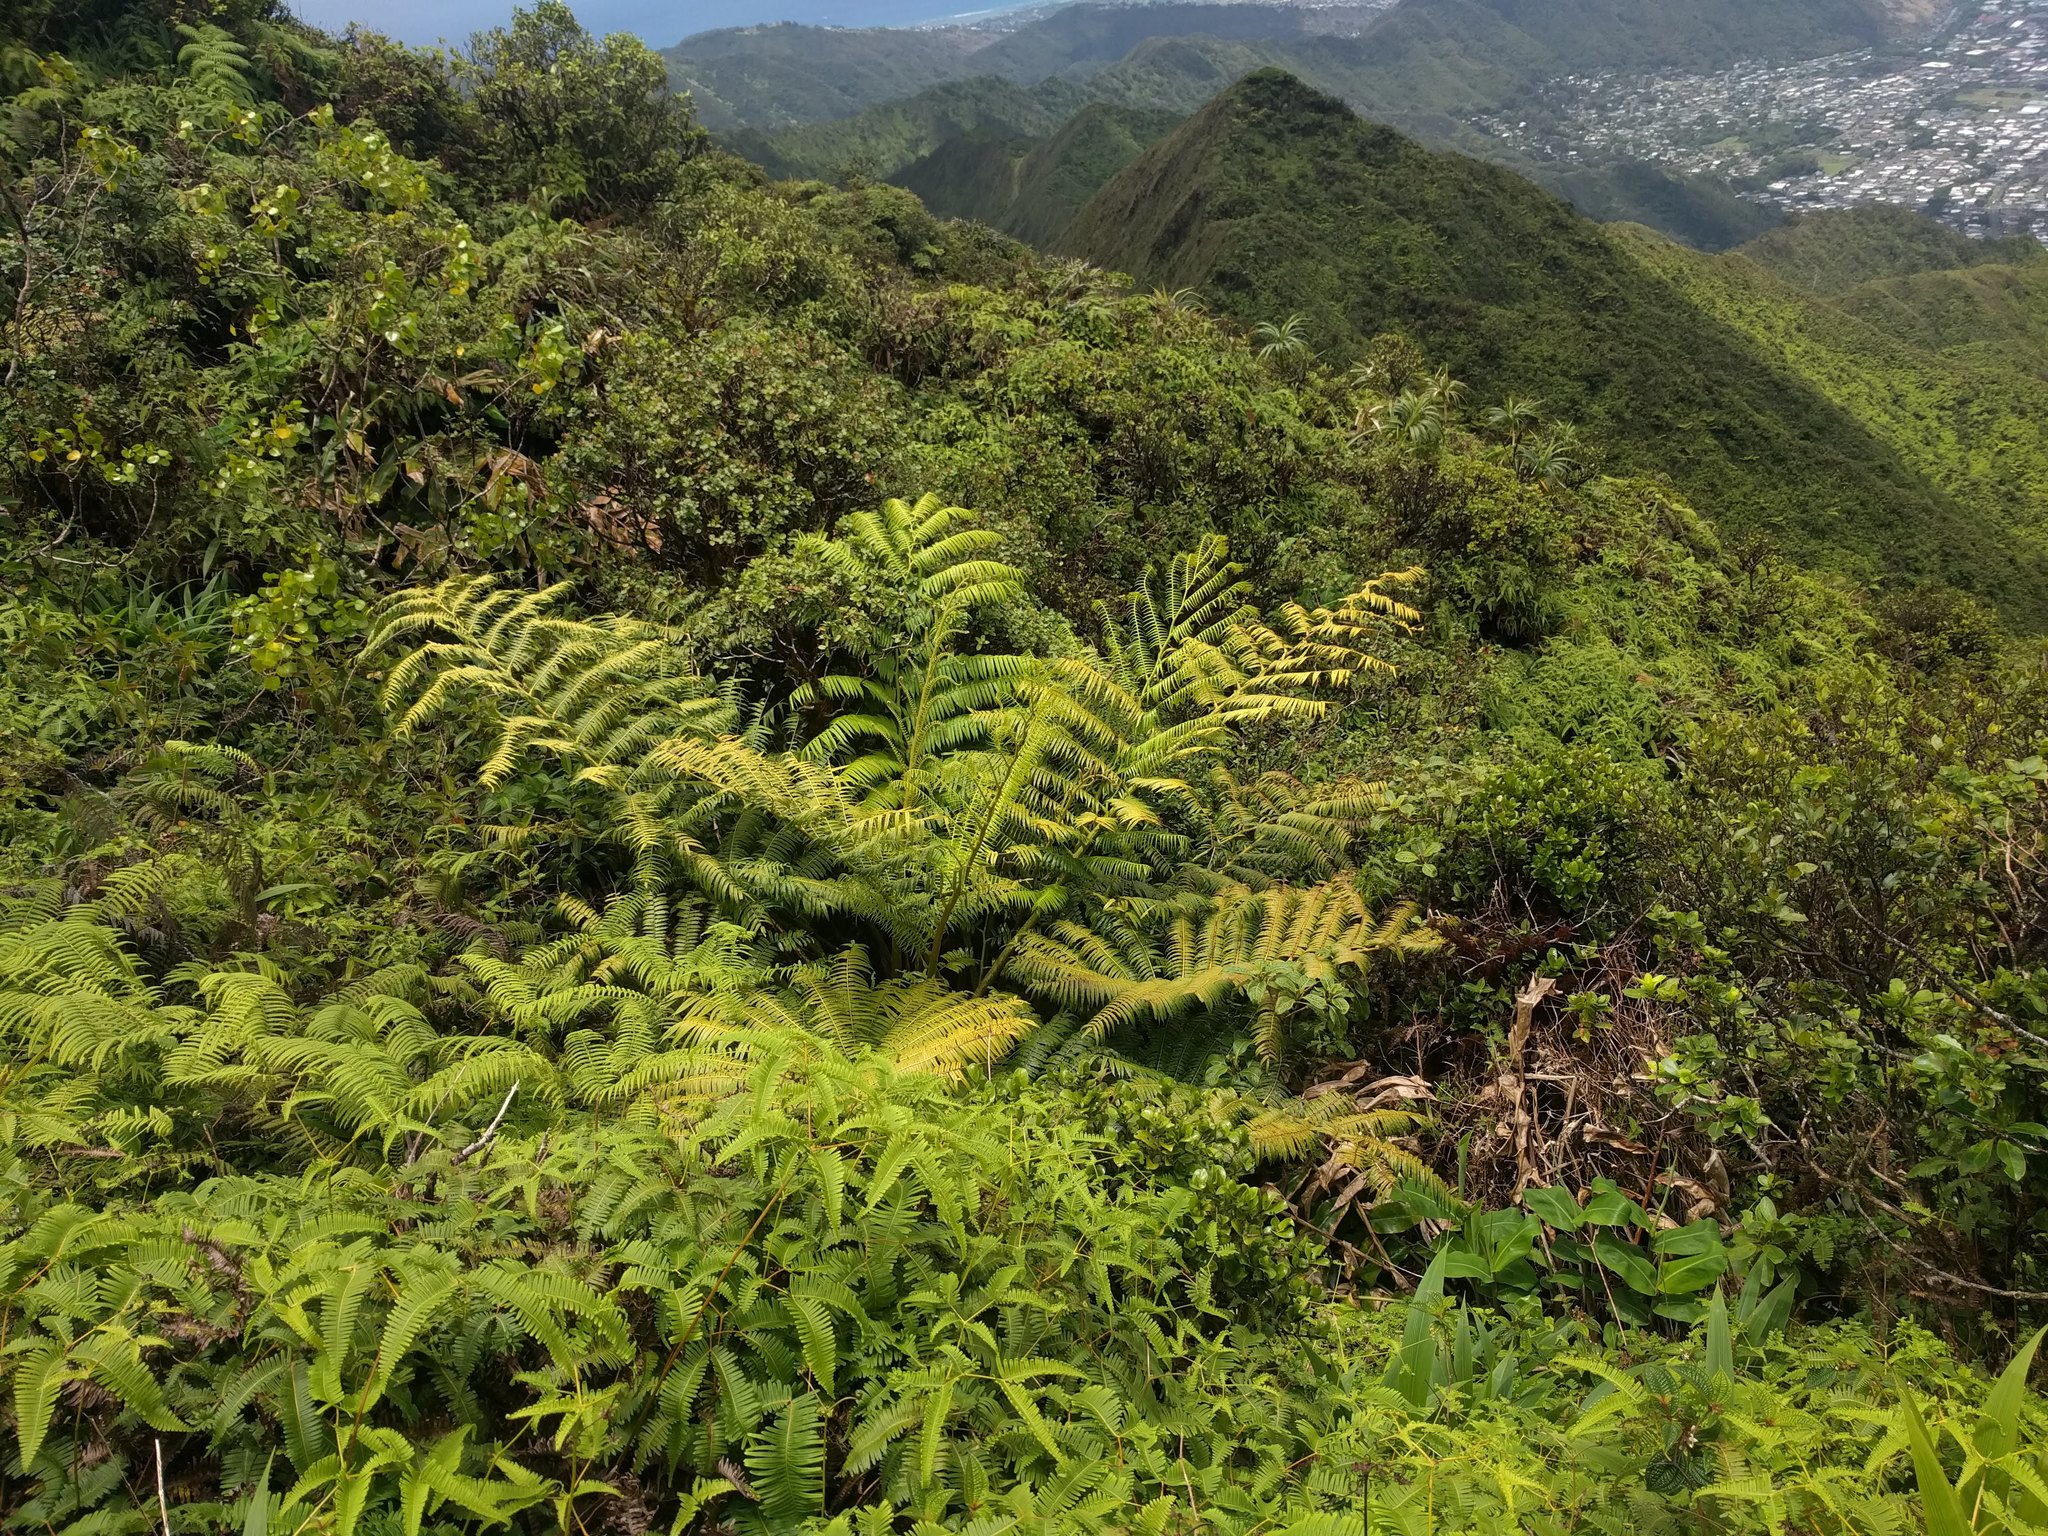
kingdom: Plantae
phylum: Tracheophyta
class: Polypodiopsida
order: Marattiales
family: Marattiaceae
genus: Angiopteris
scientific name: Angiopteris evecta
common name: Mule's-foot fern
